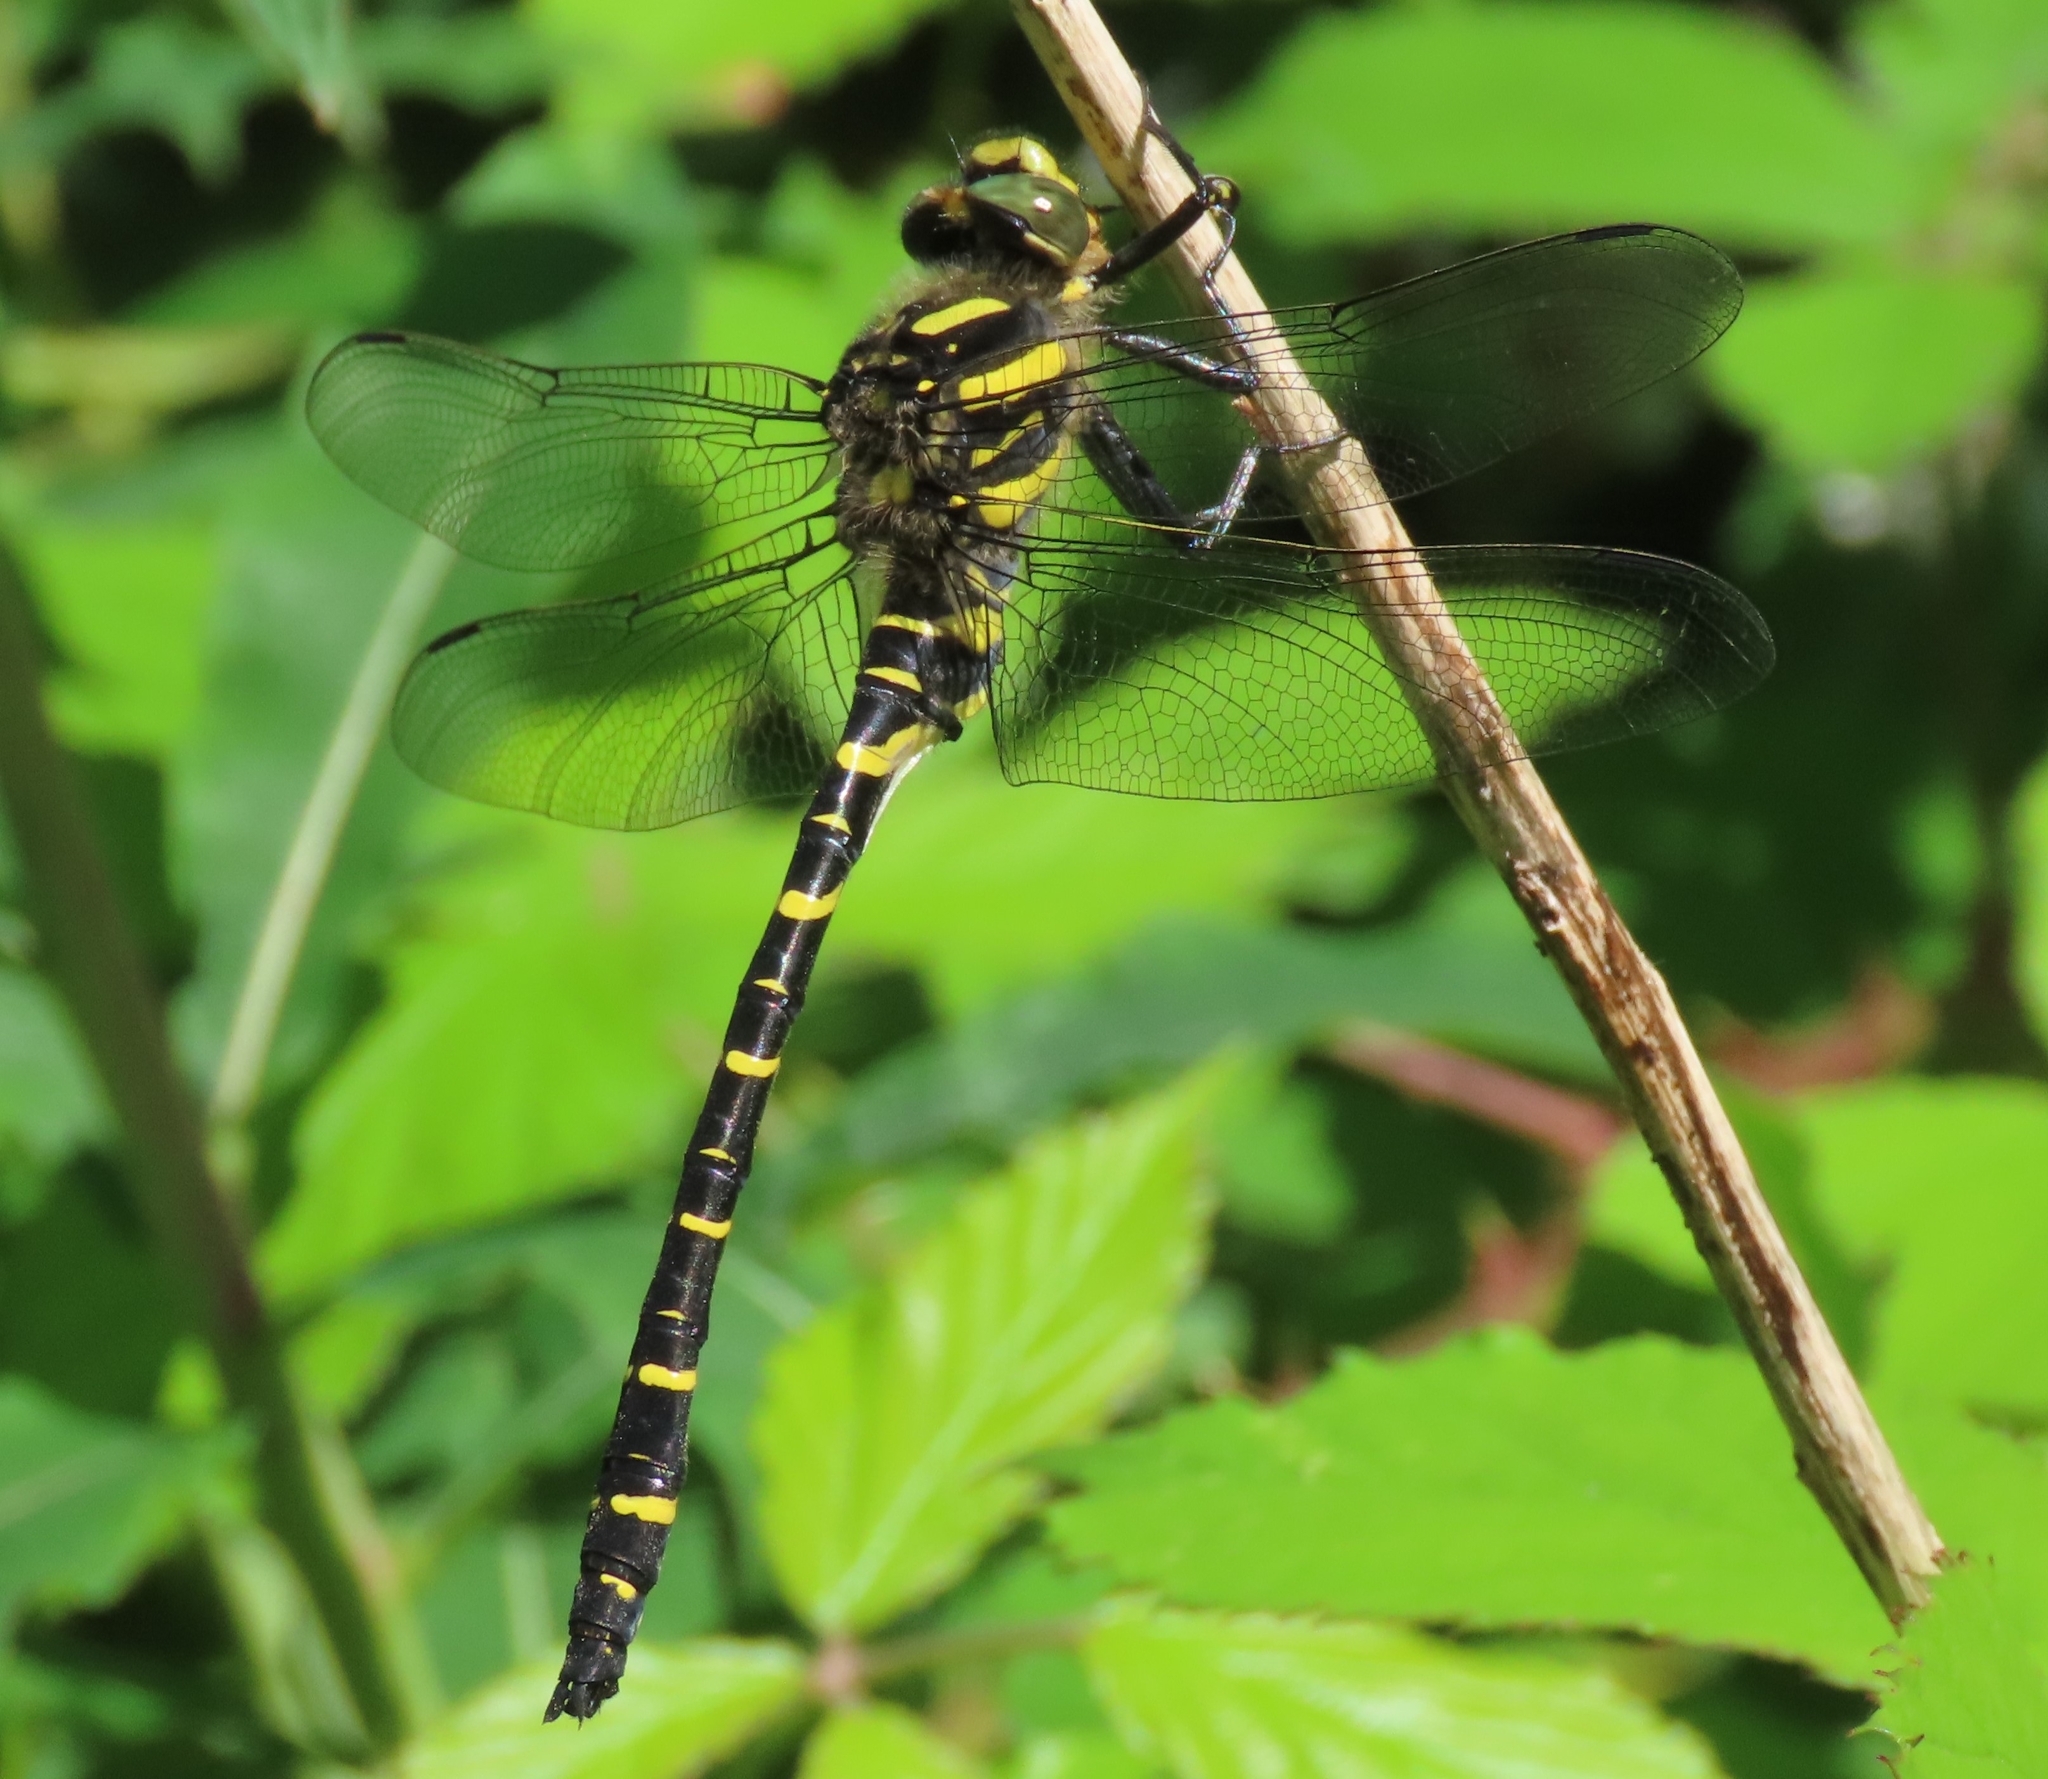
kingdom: Animalia
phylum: Arthropoda
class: Insecta
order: Odonata
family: Cordulegastridae
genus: Cordulegaster
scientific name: Cordulegaster boltonii
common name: Golden-ringed dragonfly
